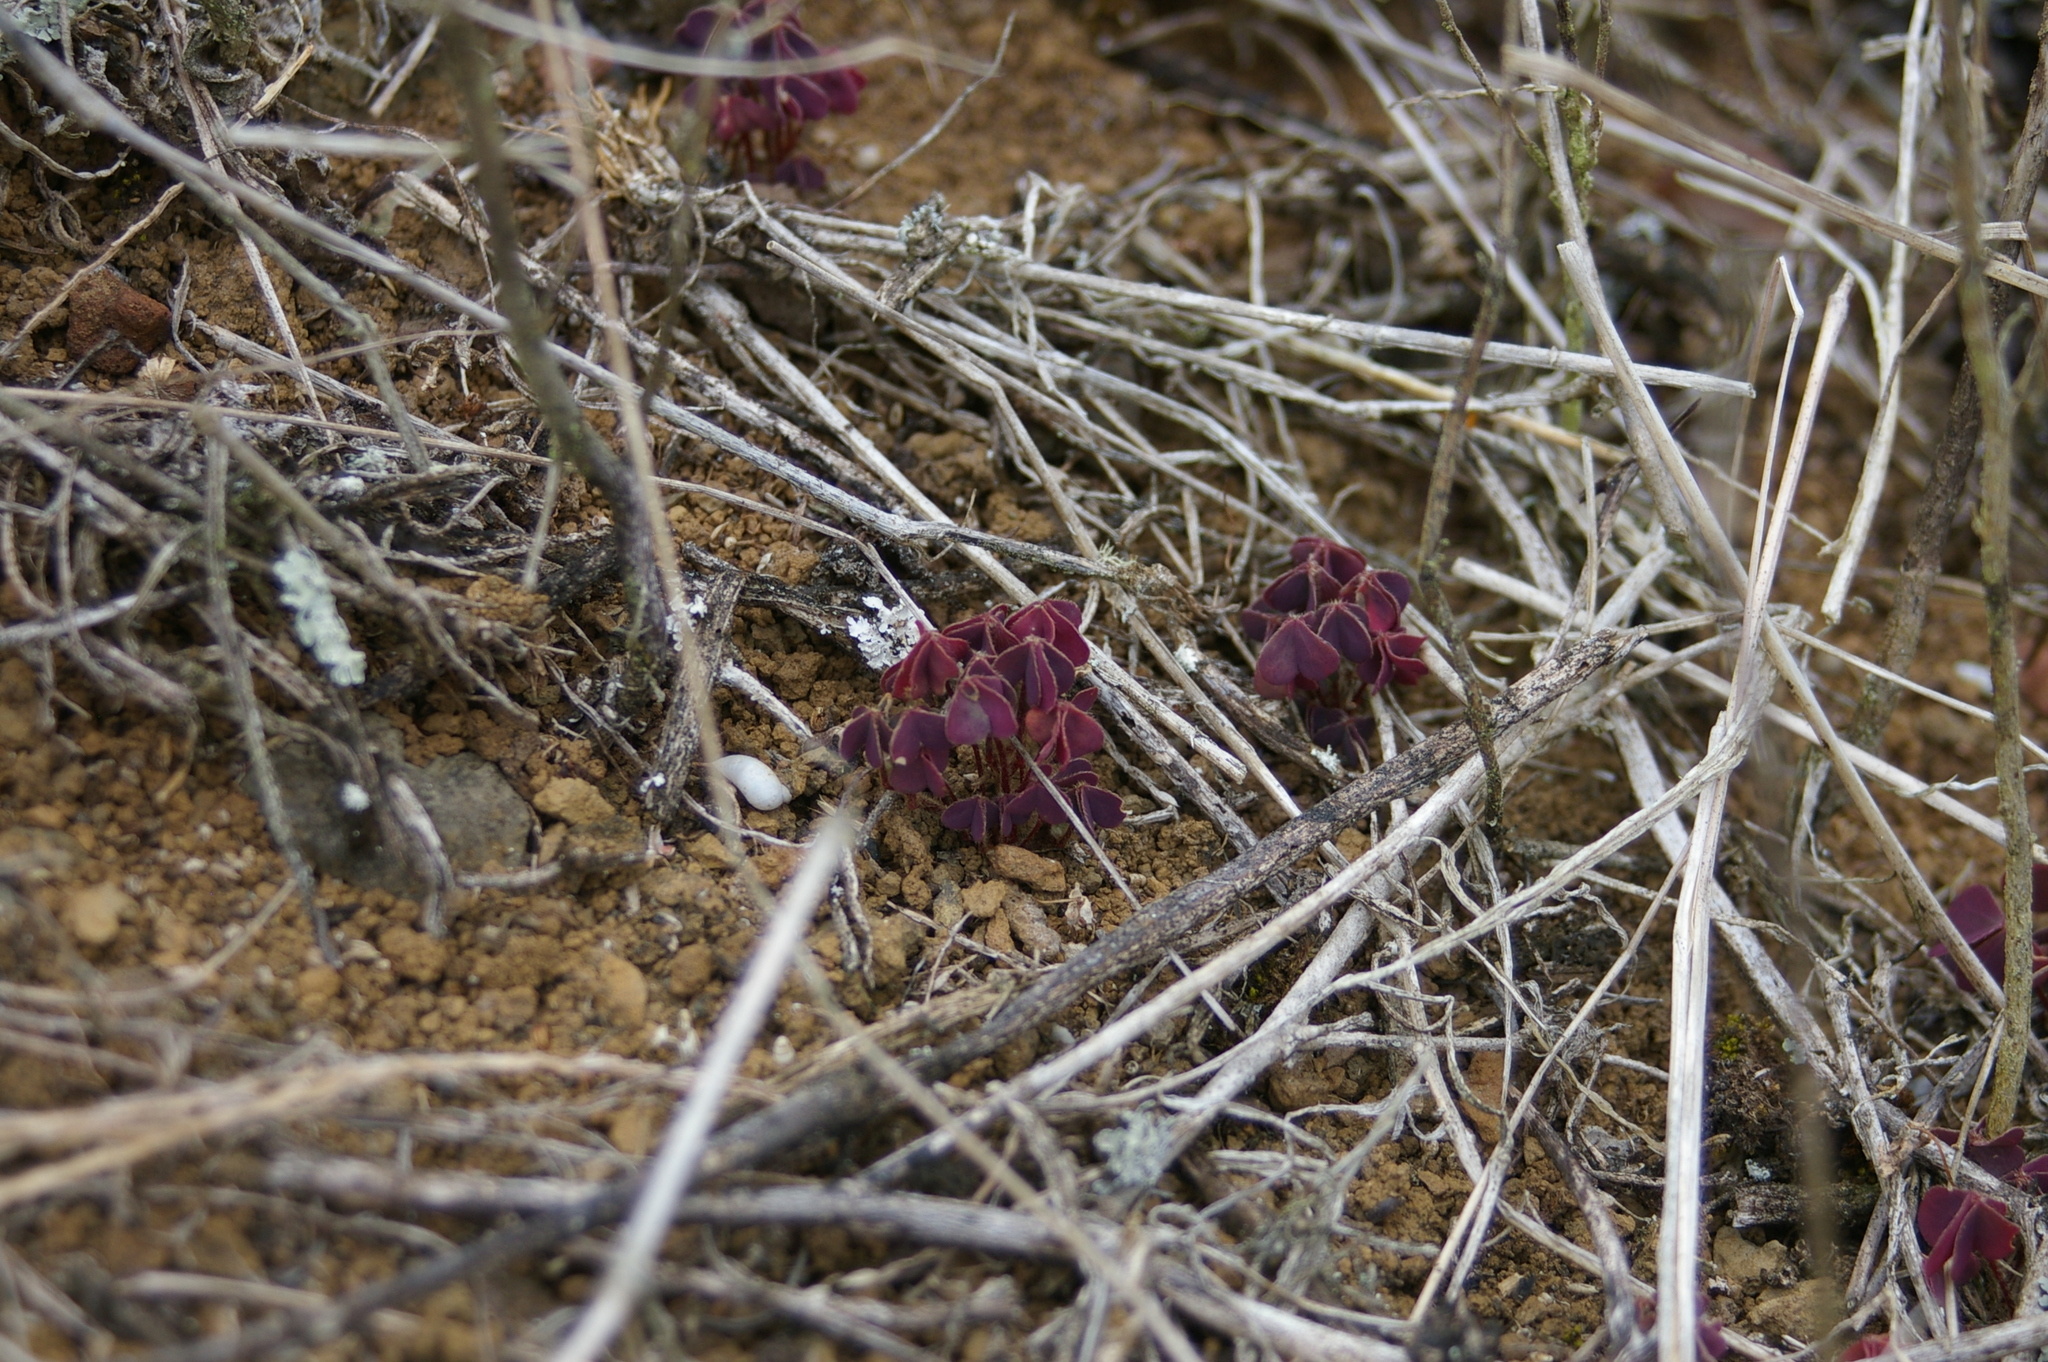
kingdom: Plantae
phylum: Tracheophyta
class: Magnoliopsida
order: Oxalidales
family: Oxalidaceae
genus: Oxalis
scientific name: Oxalis corniculata
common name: Procumbent yellow-sorrel
